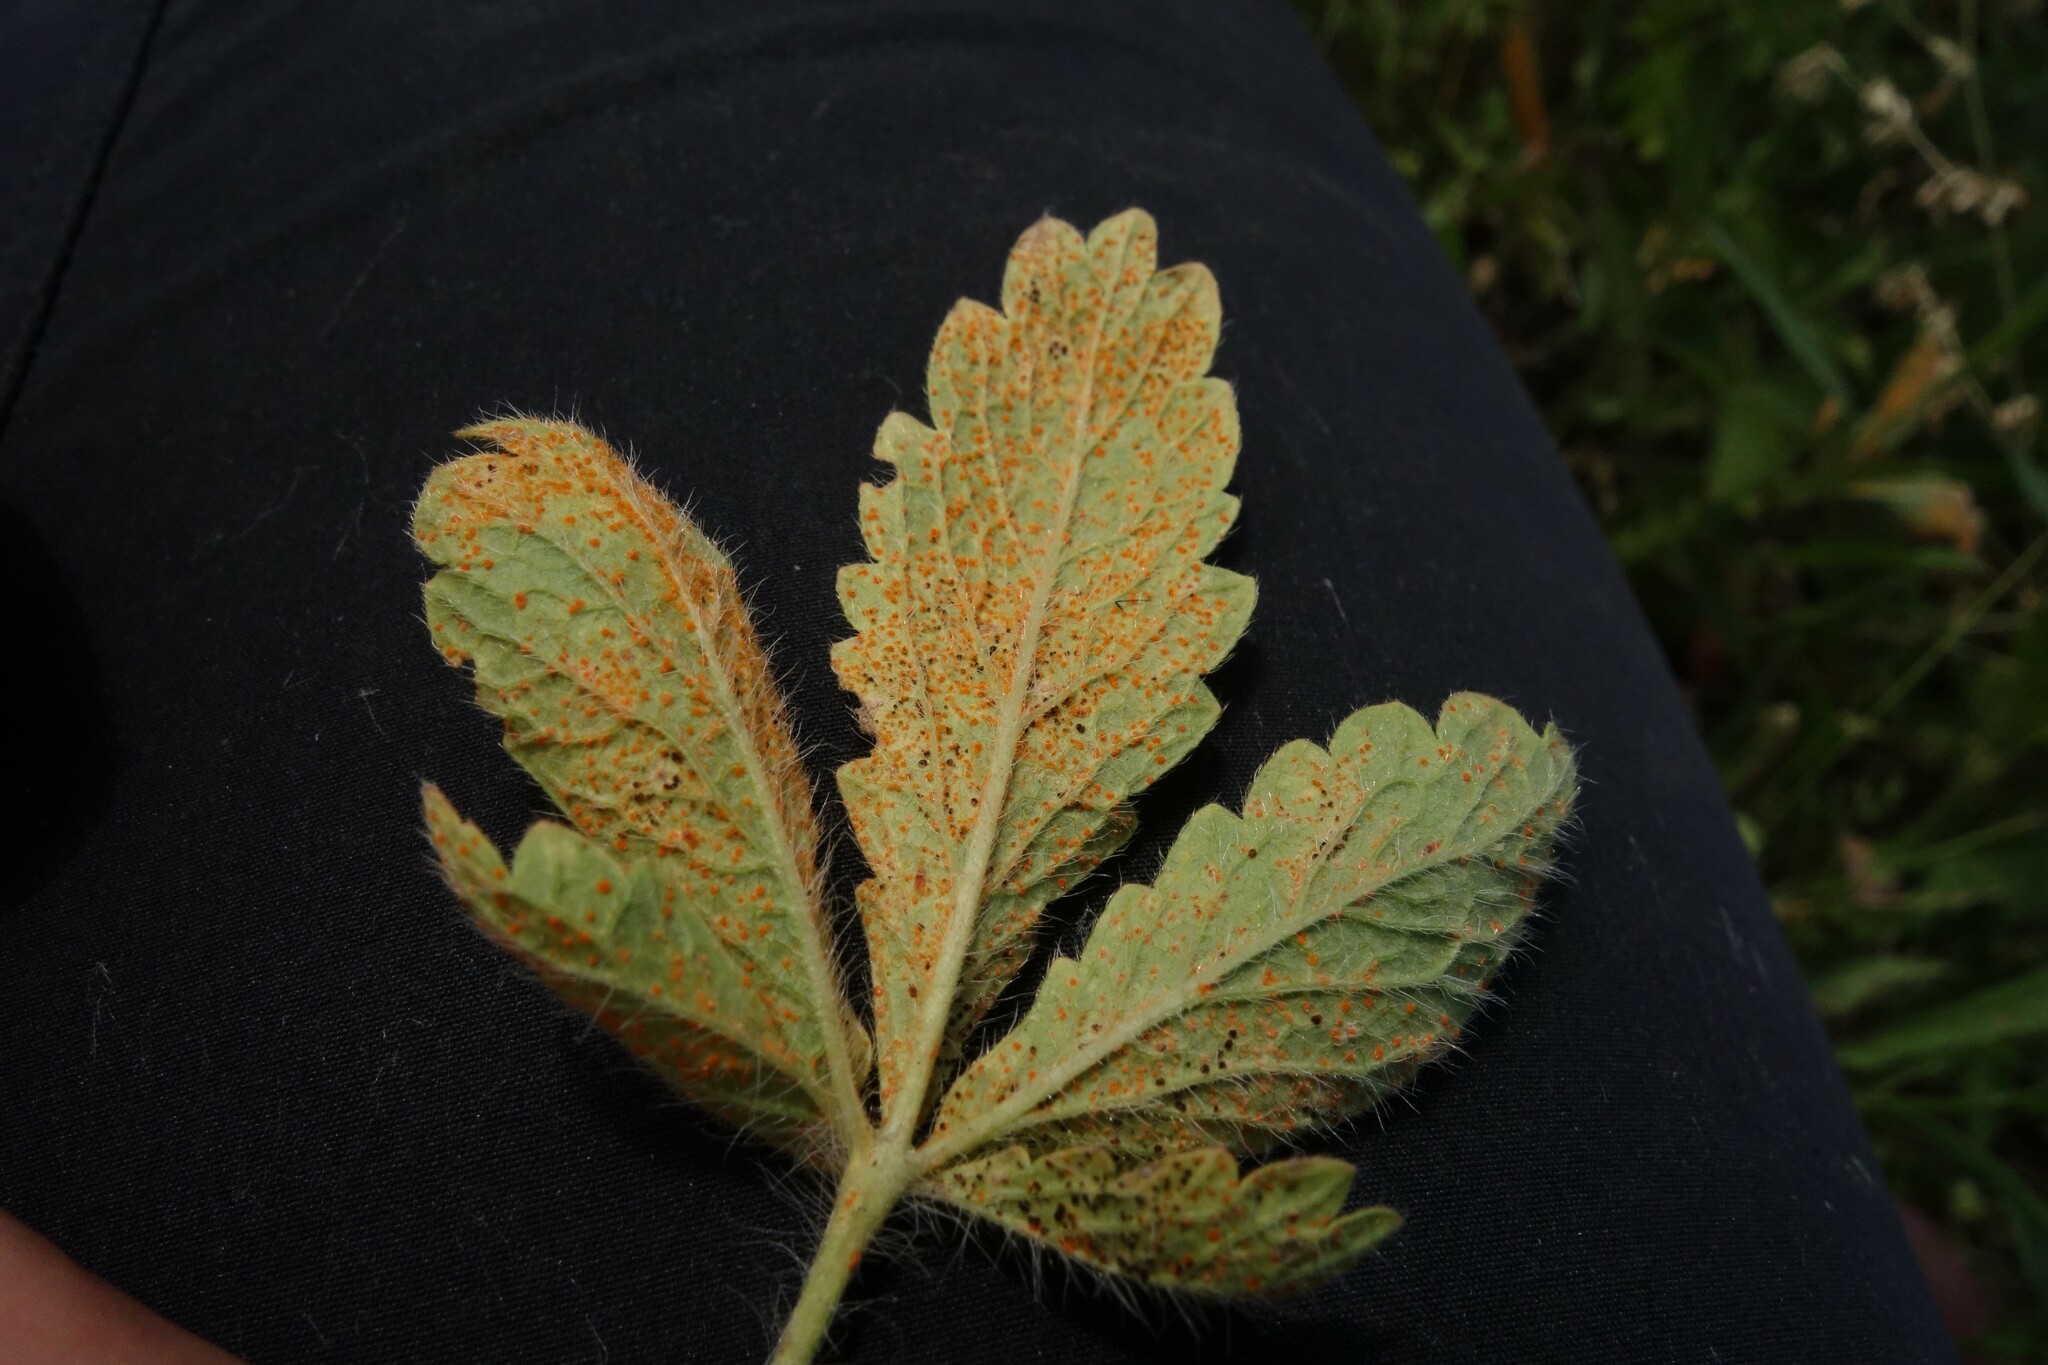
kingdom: Fungi
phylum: Basidiomycota
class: Pucciniomycetes
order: Pucciniales
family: Phragmidiaceae
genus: Phragmidium
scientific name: Phragmidium potentillae
